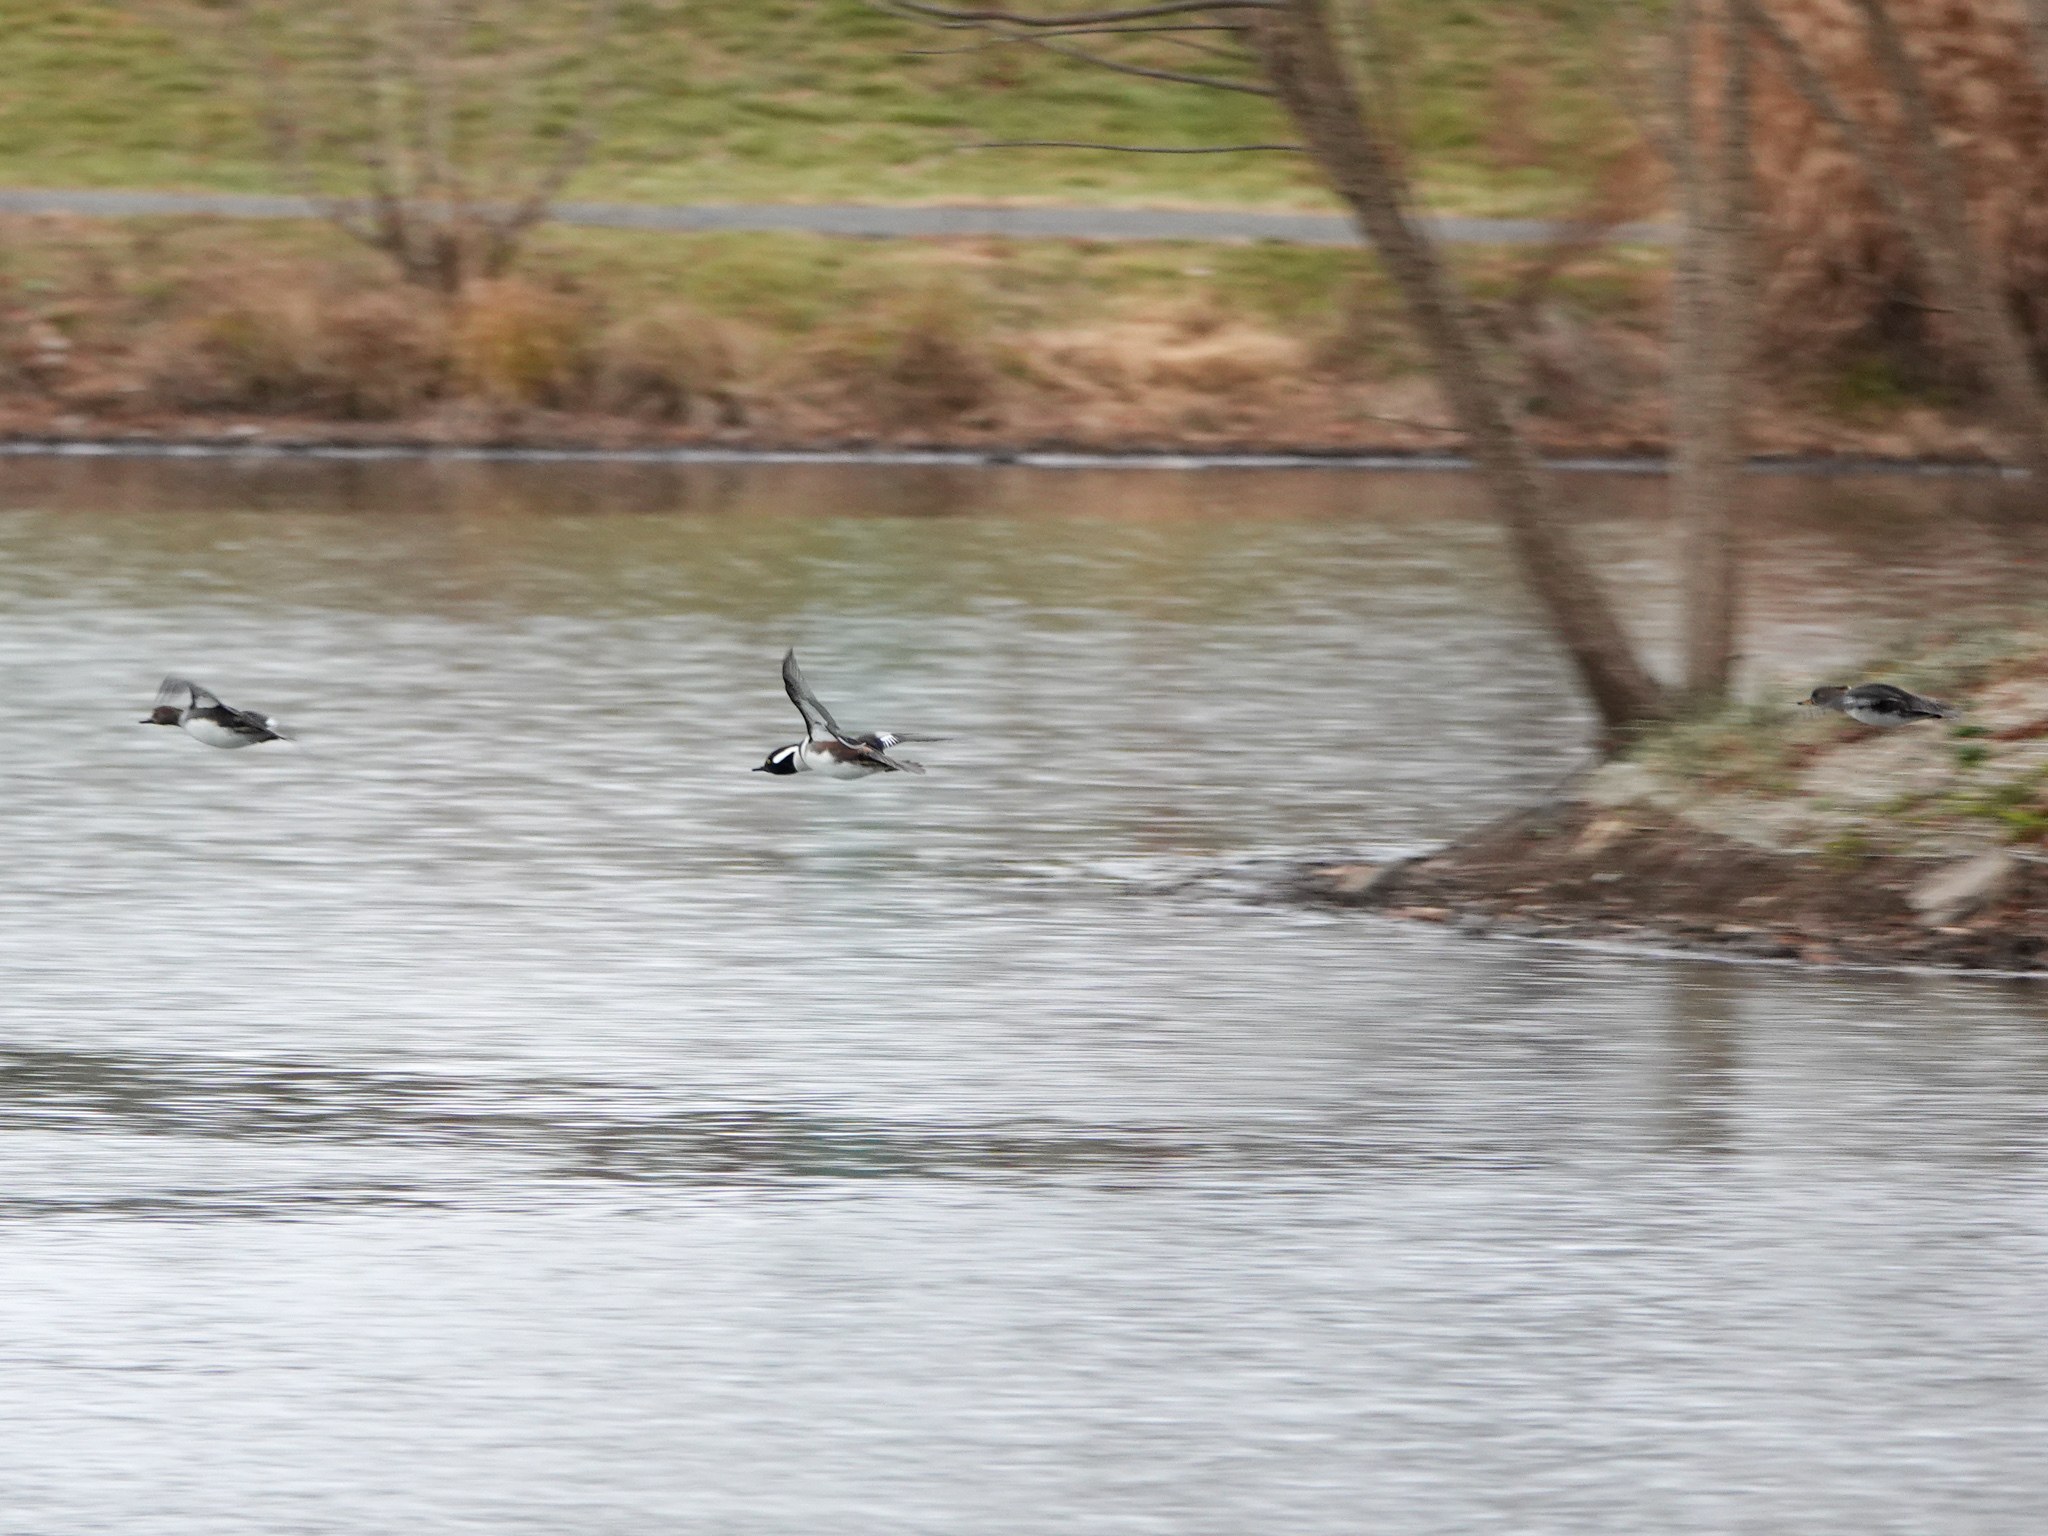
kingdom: Animalia
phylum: Chordata
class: Aves
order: Anseriformes
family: Anatidae
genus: Lophodytes
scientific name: Lophodytes cucullatus
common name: Hooded merganser
